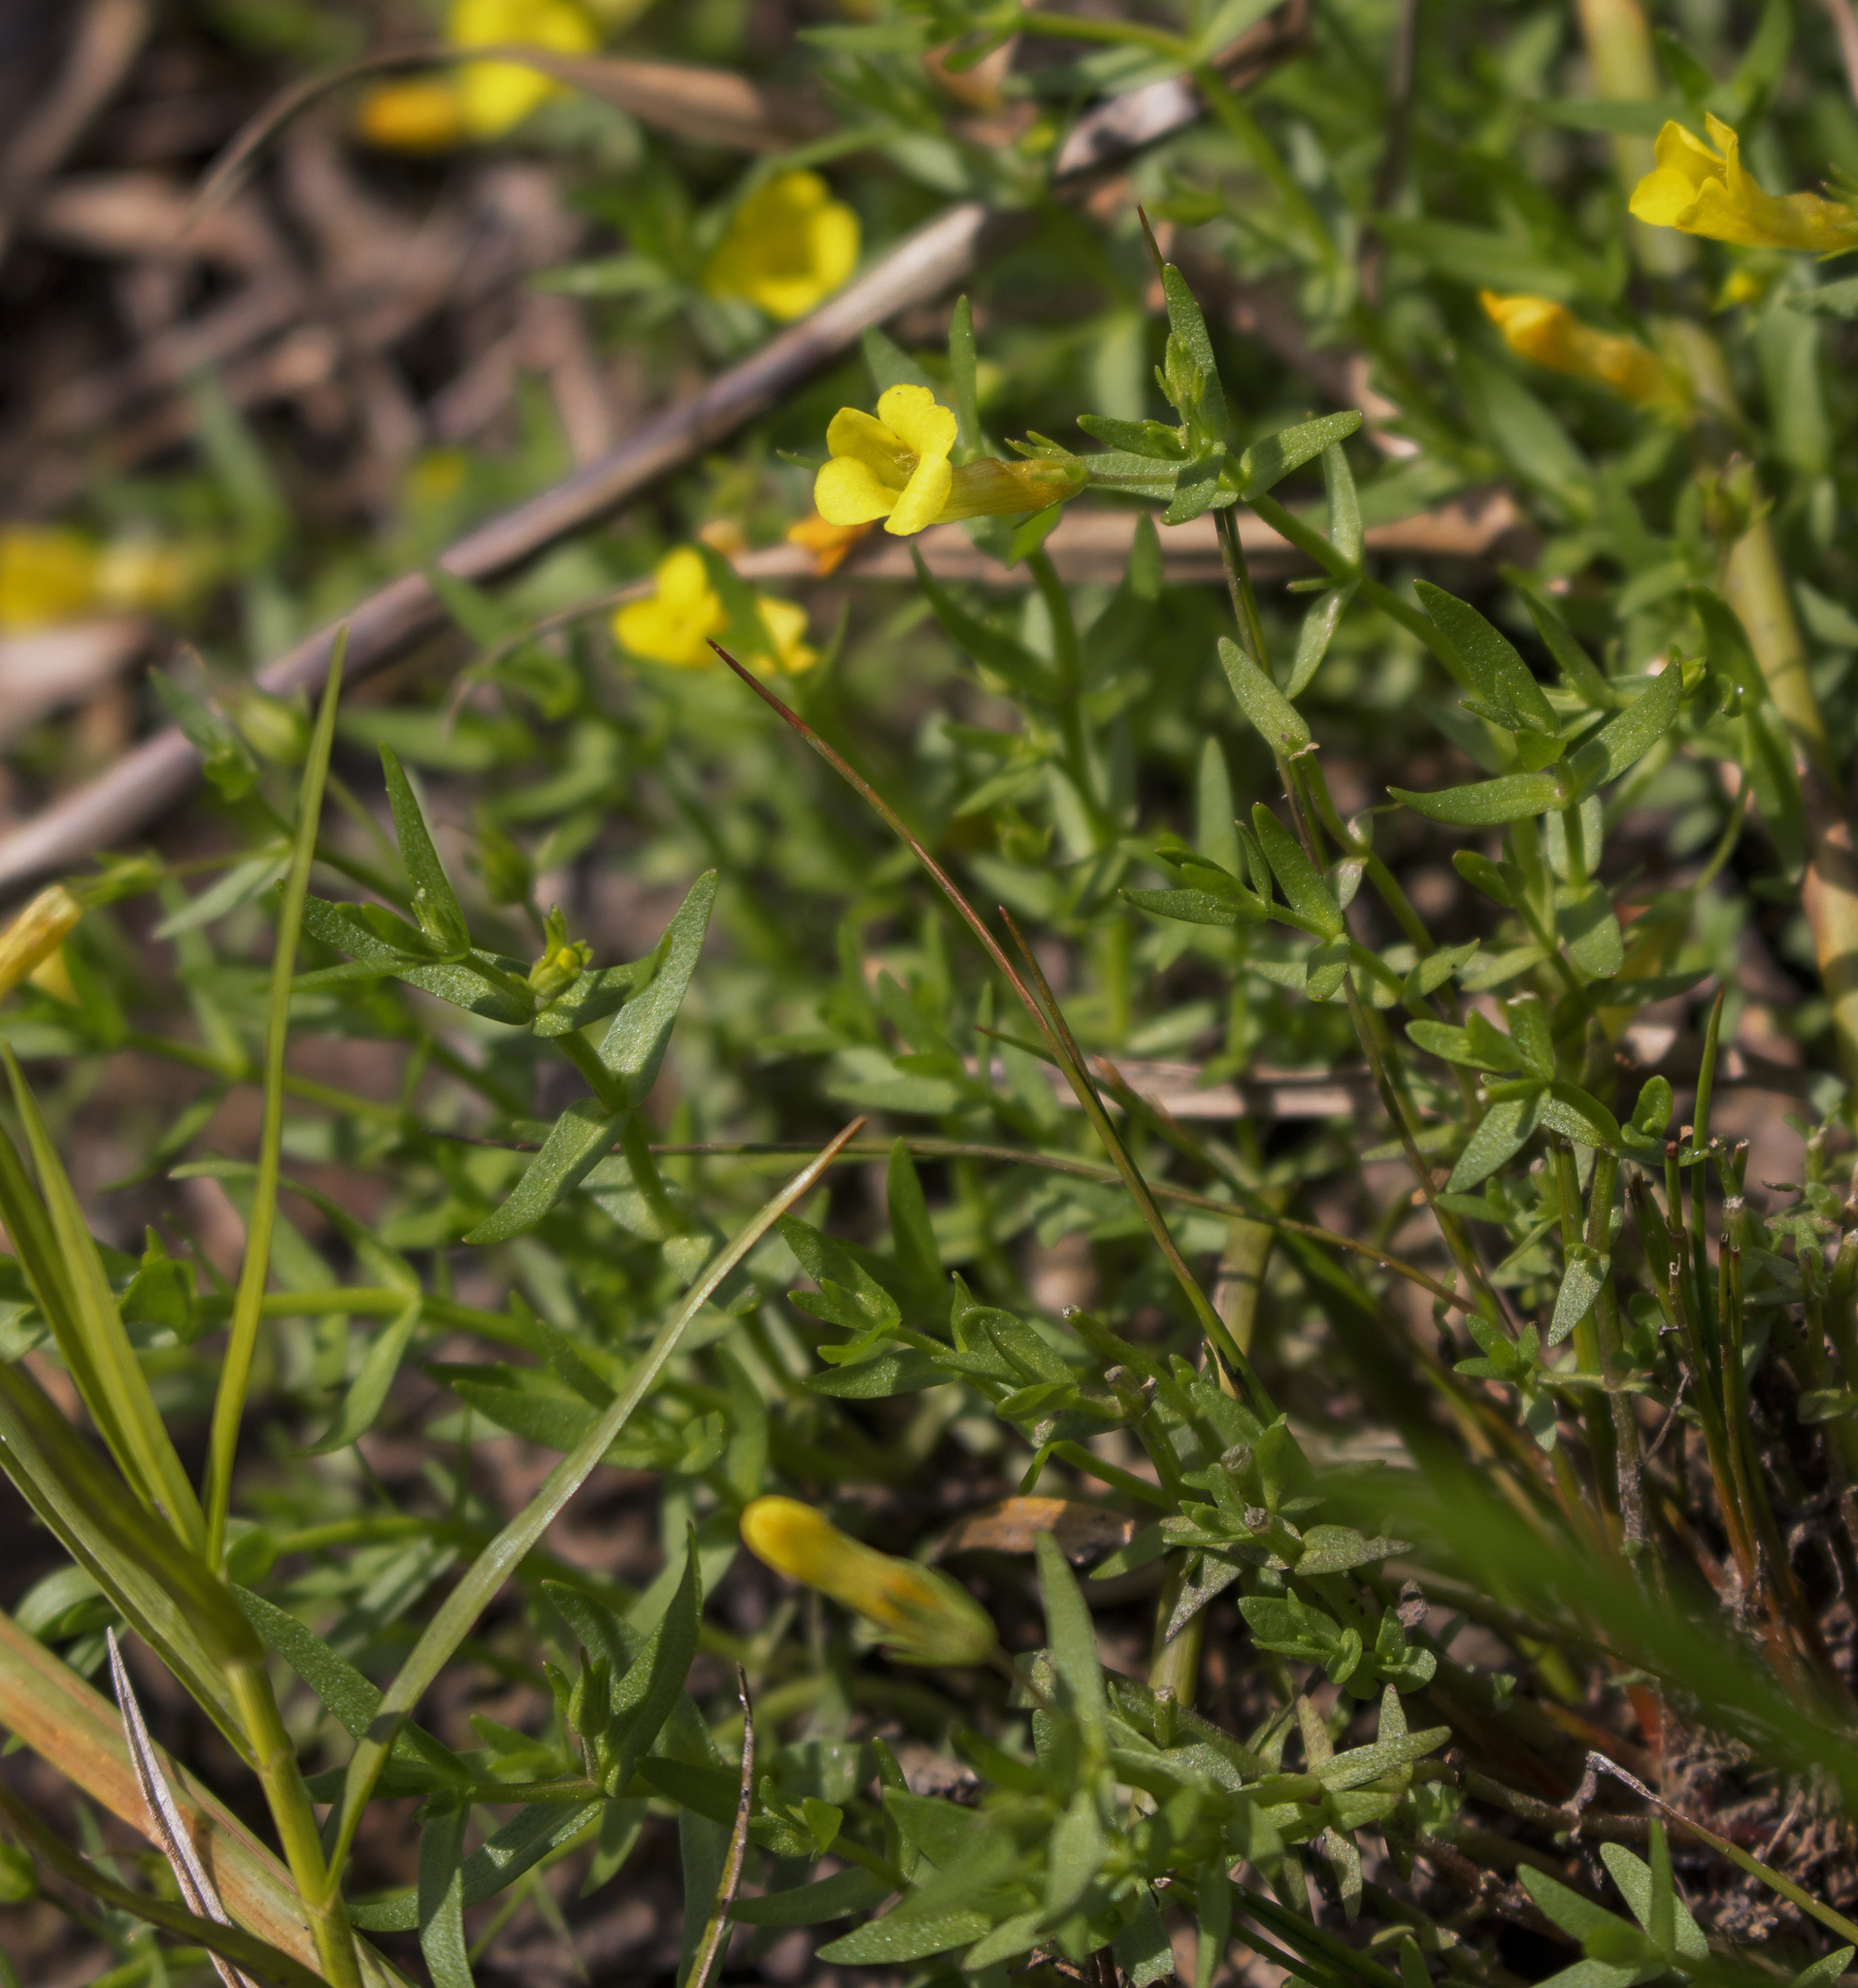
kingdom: Plantae
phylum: Tracheophyta
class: Magnoliopsida
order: Lamiales
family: Plantaginaceae
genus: Gratiola
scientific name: Gratiola lutea
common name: Golden hedge-hyssop
